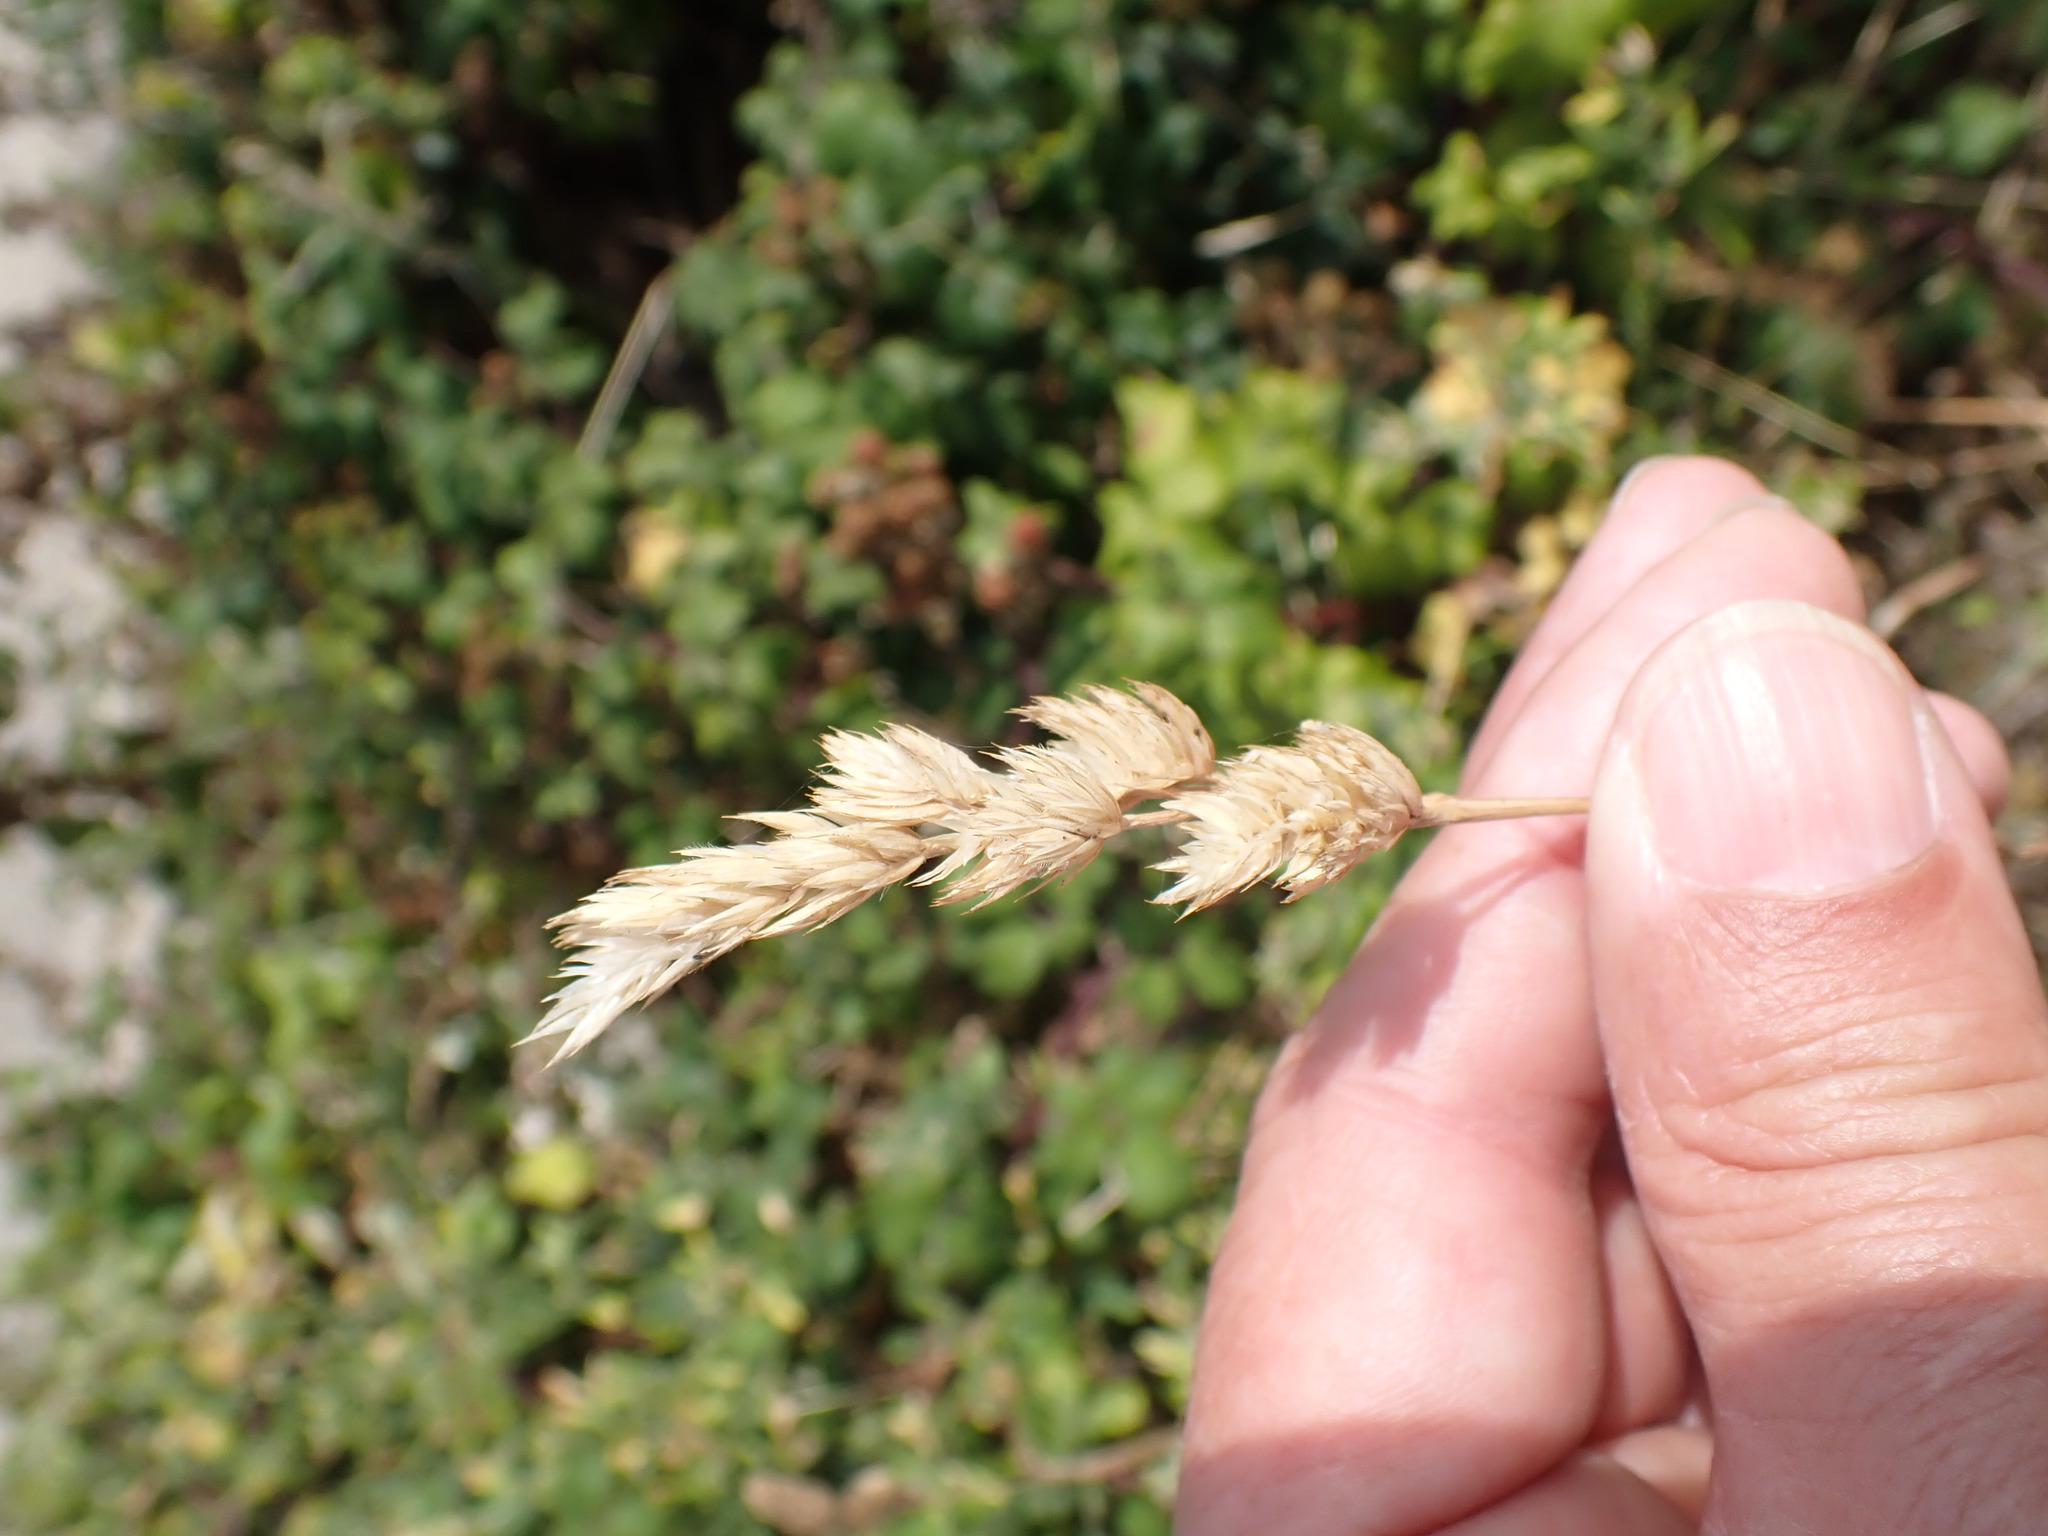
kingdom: Plantae
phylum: Tracheophyta
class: Liliopsida
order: Poales
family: Poaceae
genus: Dactylis
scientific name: Dactylis glomerata
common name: Orchardgrass
